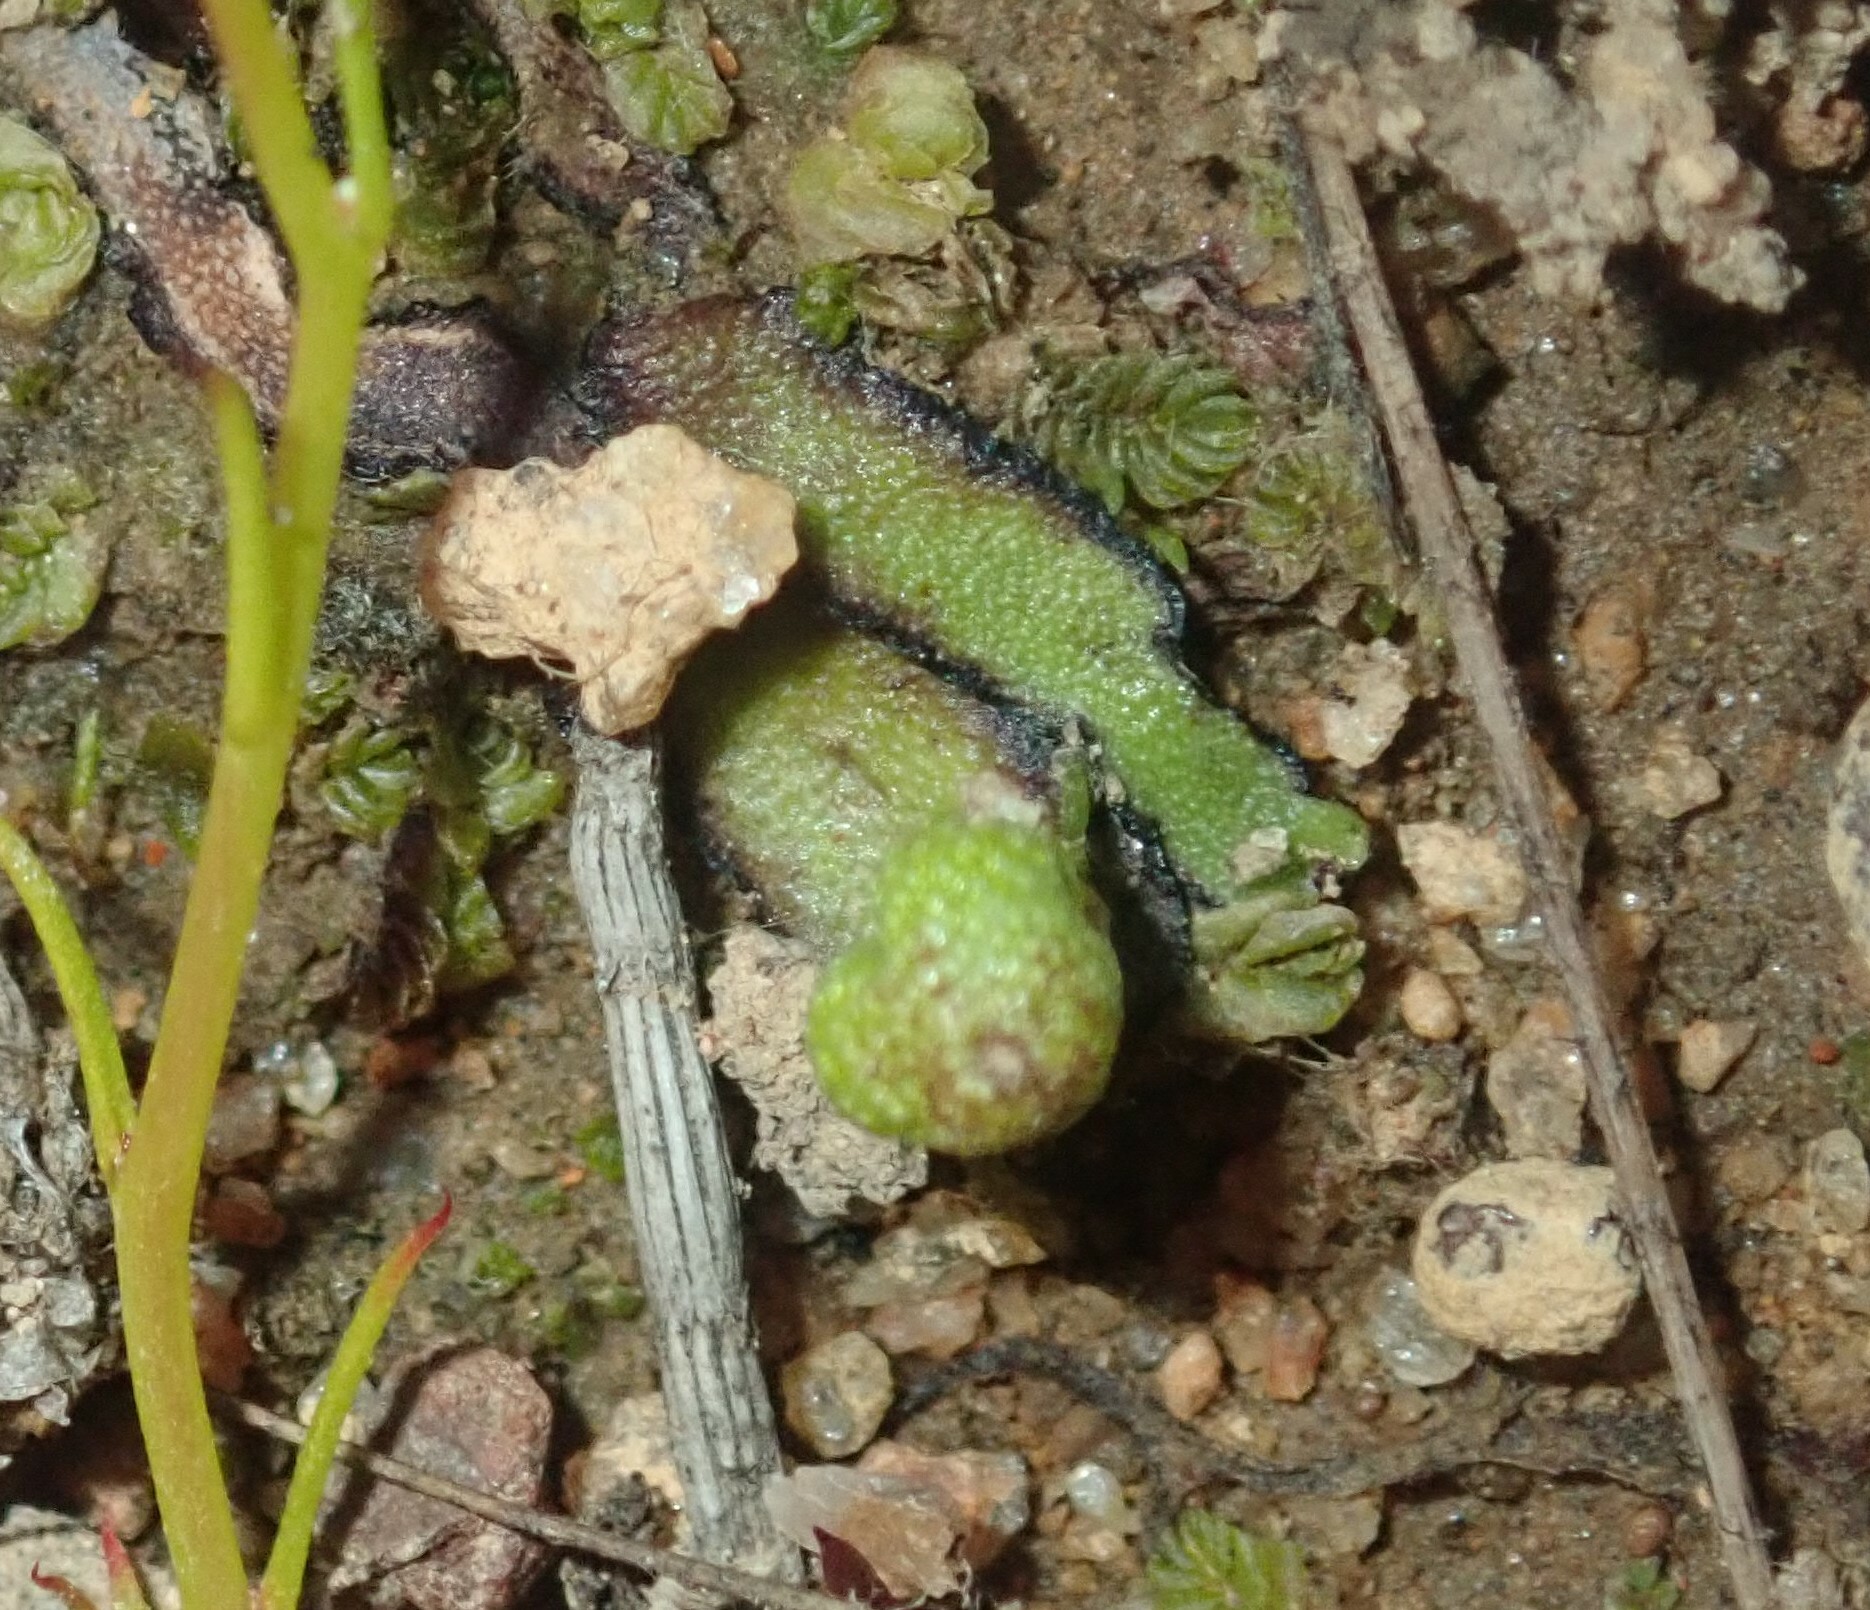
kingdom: Plantae
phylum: Marchantiophyta
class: Marchantiopsida
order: Marchantiales
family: Aytoniaceae
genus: Asterella
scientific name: Asterella drummondii
